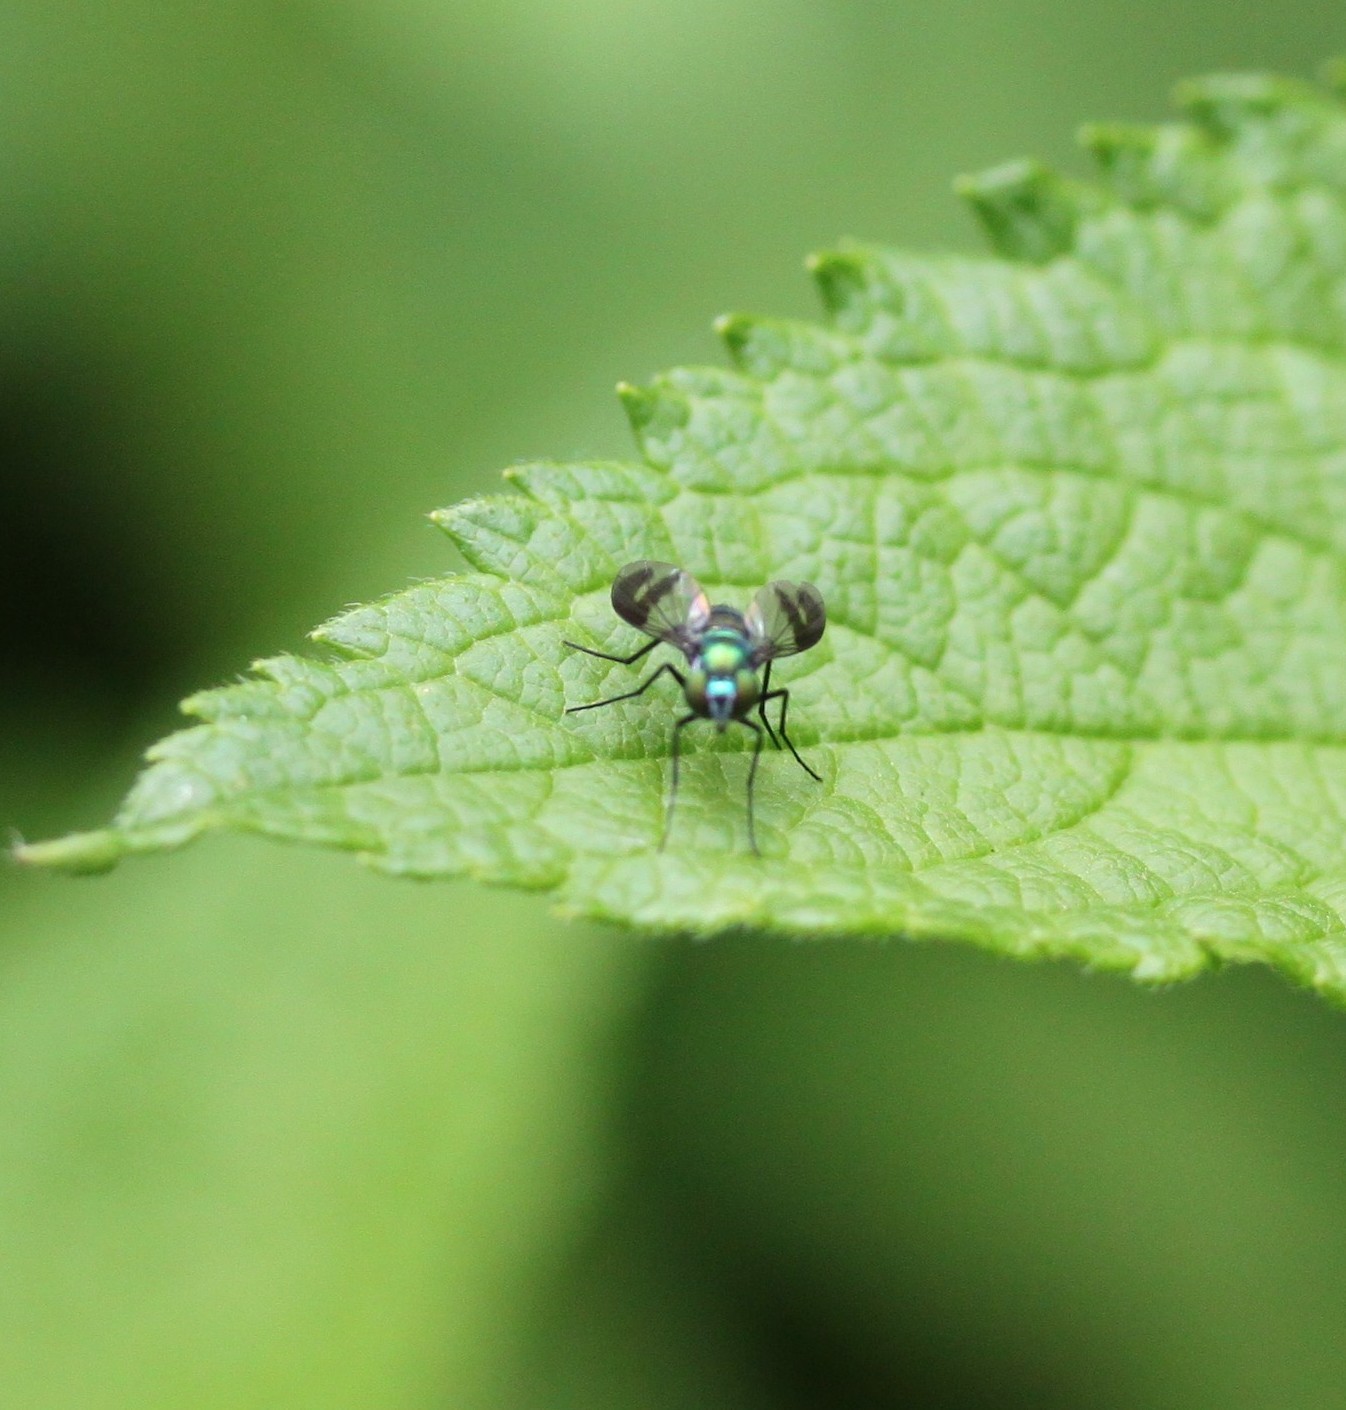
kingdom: Animalia
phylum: Arthropoda
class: Insecta
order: Diptera
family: Dolichopodidae
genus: Condylostylus
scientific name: Condylostylus patibulatus
